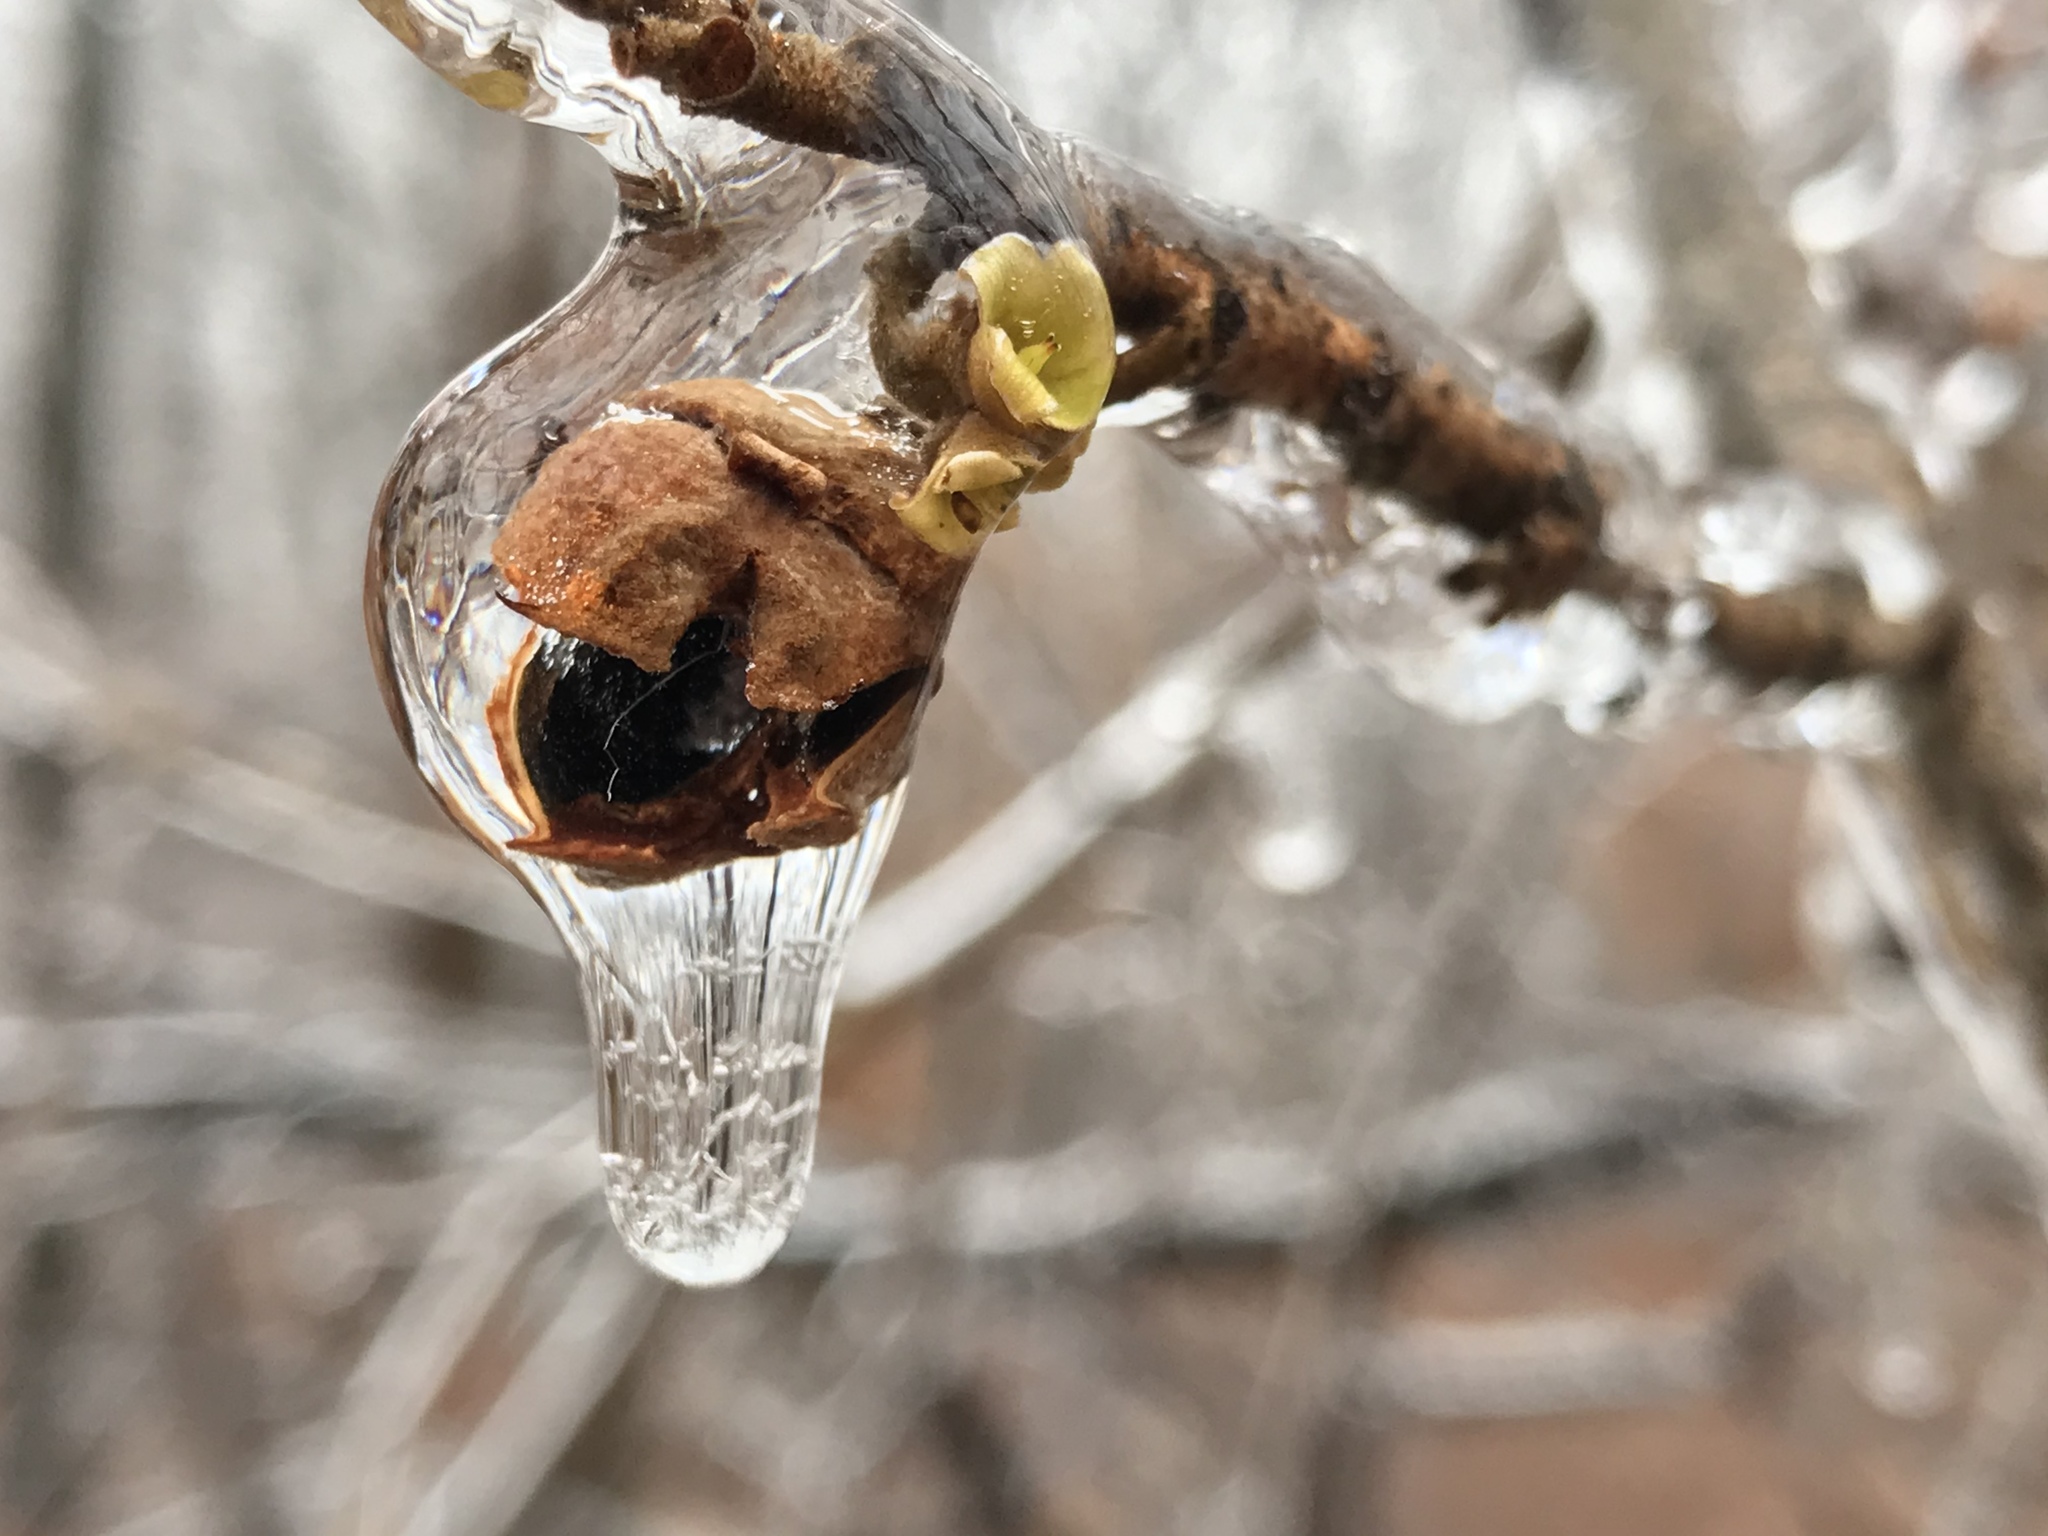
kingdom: Plantae
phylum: Tracheophyta
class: Magnoliopsida
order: Saxifragales
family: Hamamelidaceae
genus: Hamamelis
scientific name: Hamamelis virginiana
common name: Witch-hazel
